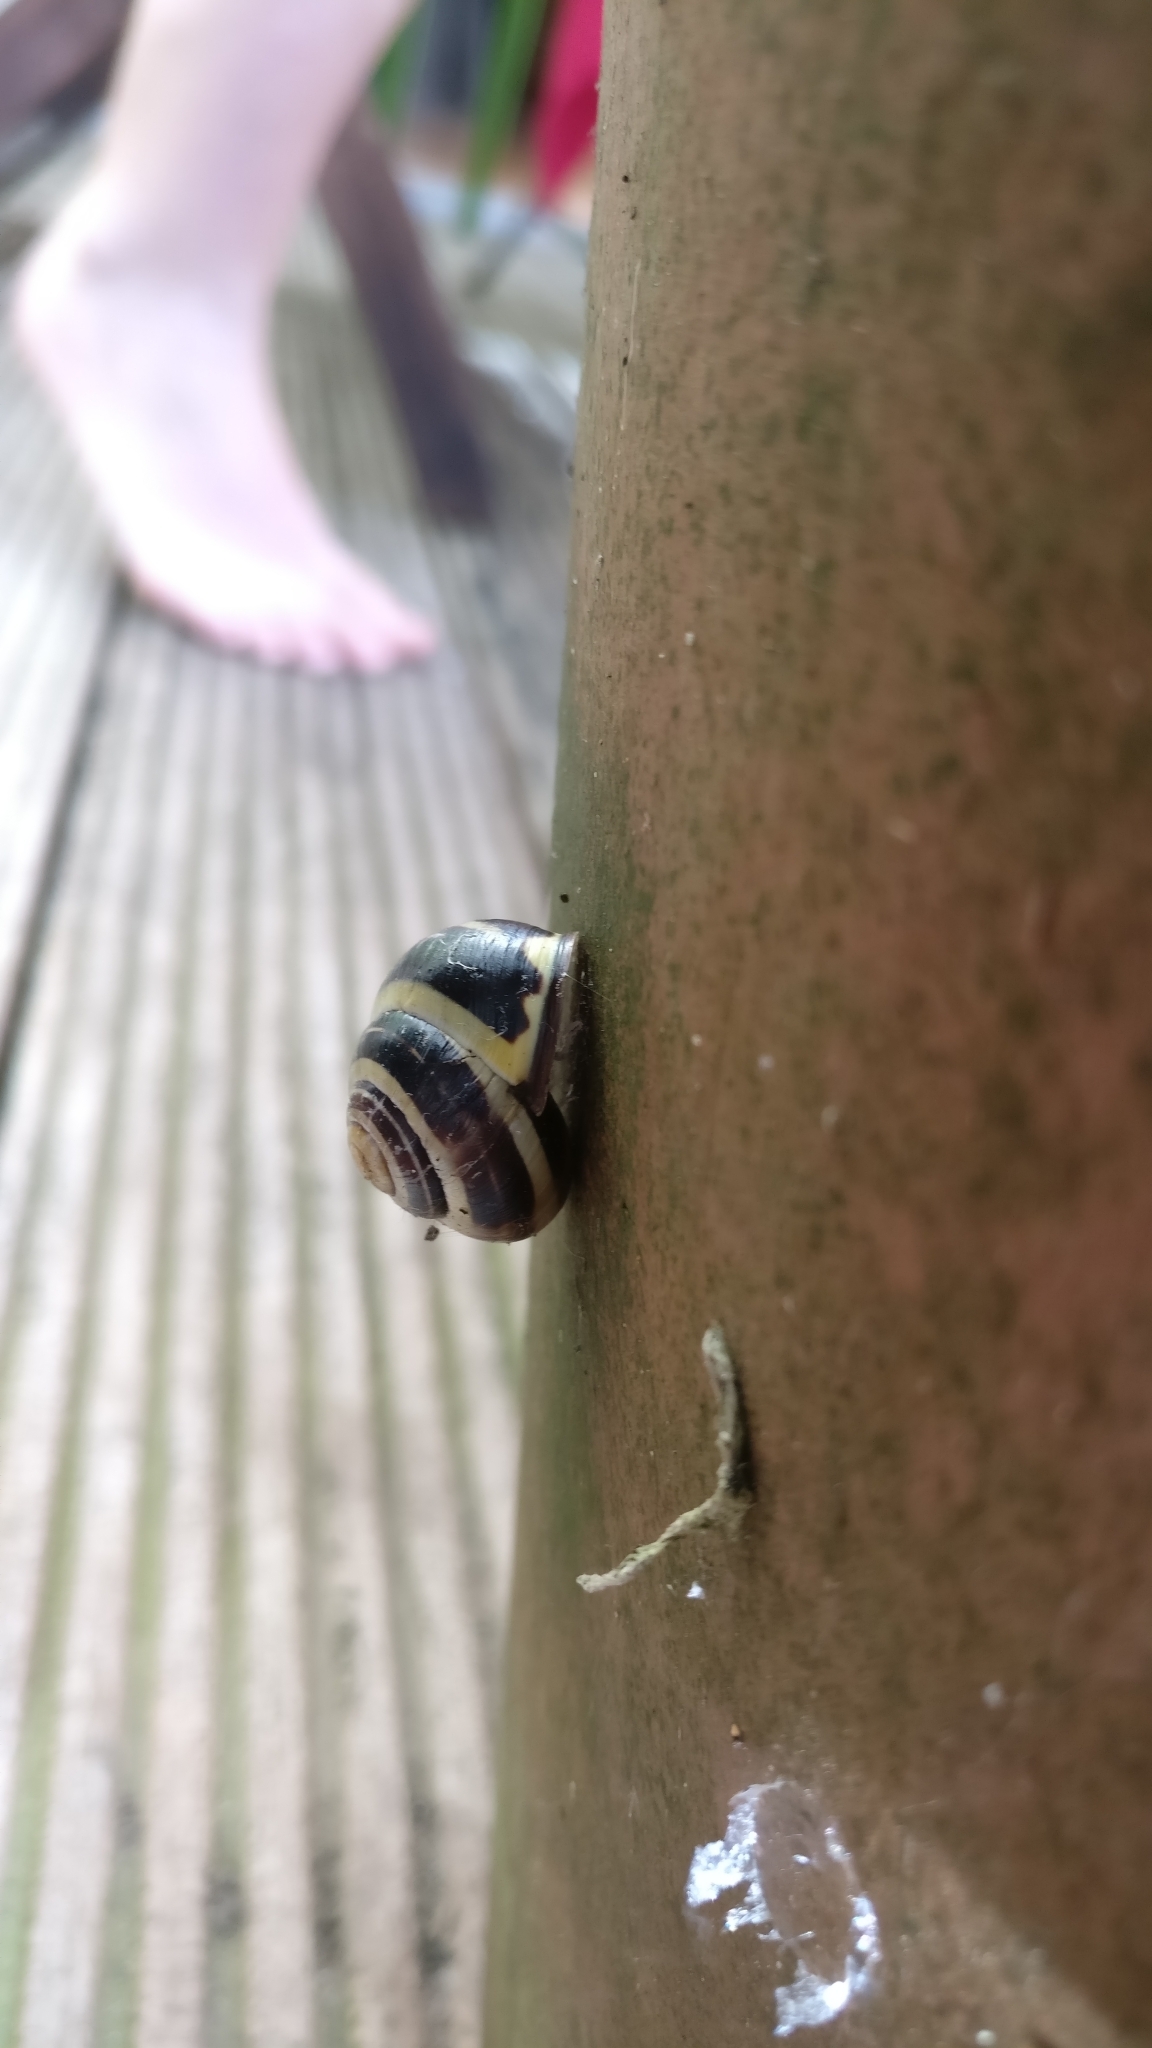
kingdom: Animalia
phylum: Mollusca
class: Gastropoda
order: Stylommatophora
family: Helicidae
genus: Cepaea
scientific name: Cepaea nemoralis
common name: Grovesnail
